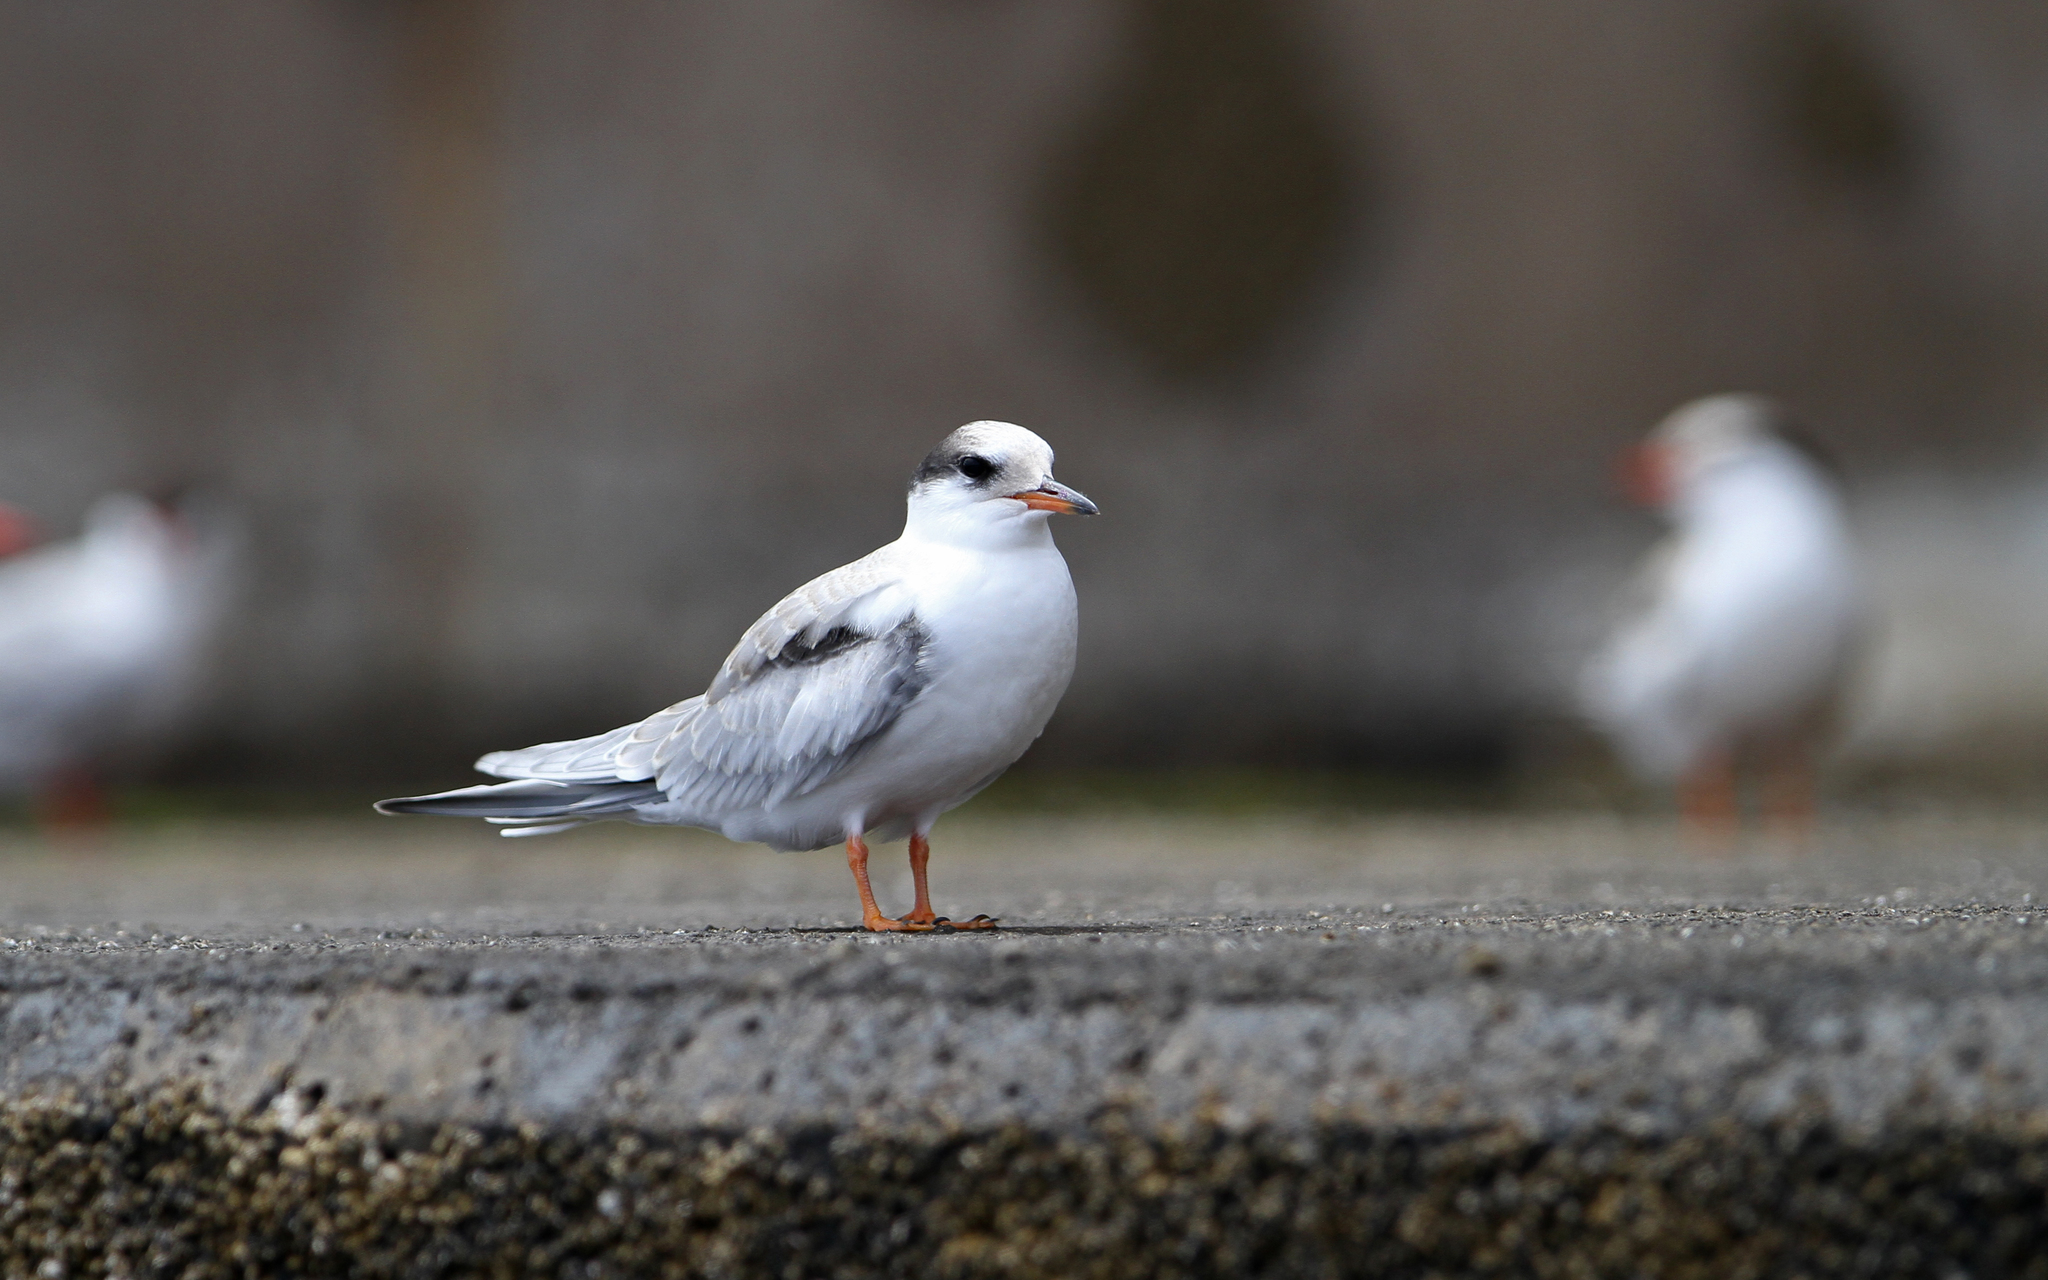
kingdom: Animalia
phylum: Chordata
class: Aves
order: Charadriiformes
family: Laridae
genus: Sterna
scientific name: Sterna hirundo
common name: Common tern
